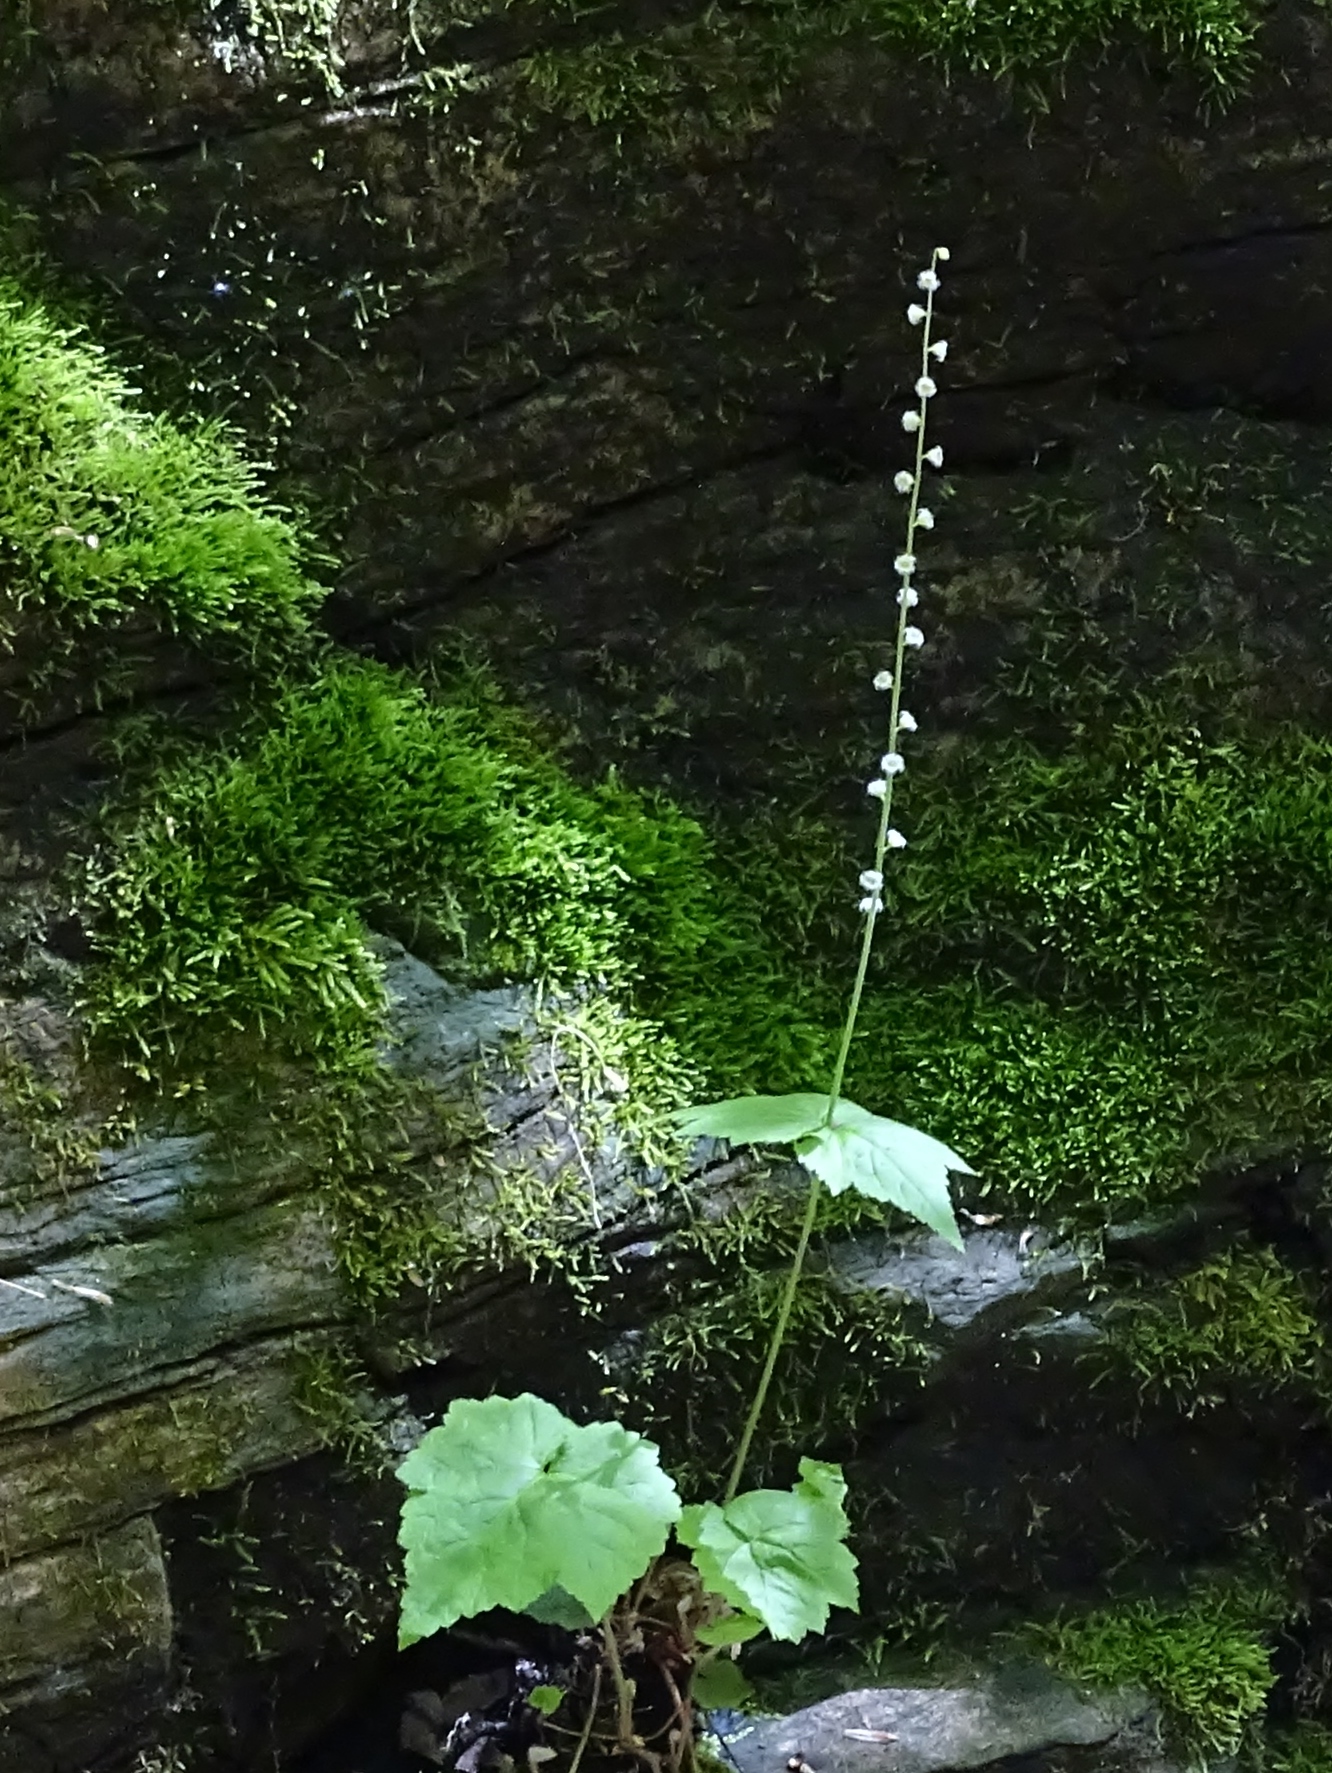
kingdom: Plantae
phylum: Tracheophyta
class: Magnoliopsida
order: Saxifragales
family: Saxifragaceae
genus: Mitella
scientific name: Mitella diphylla
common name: Coolwort
